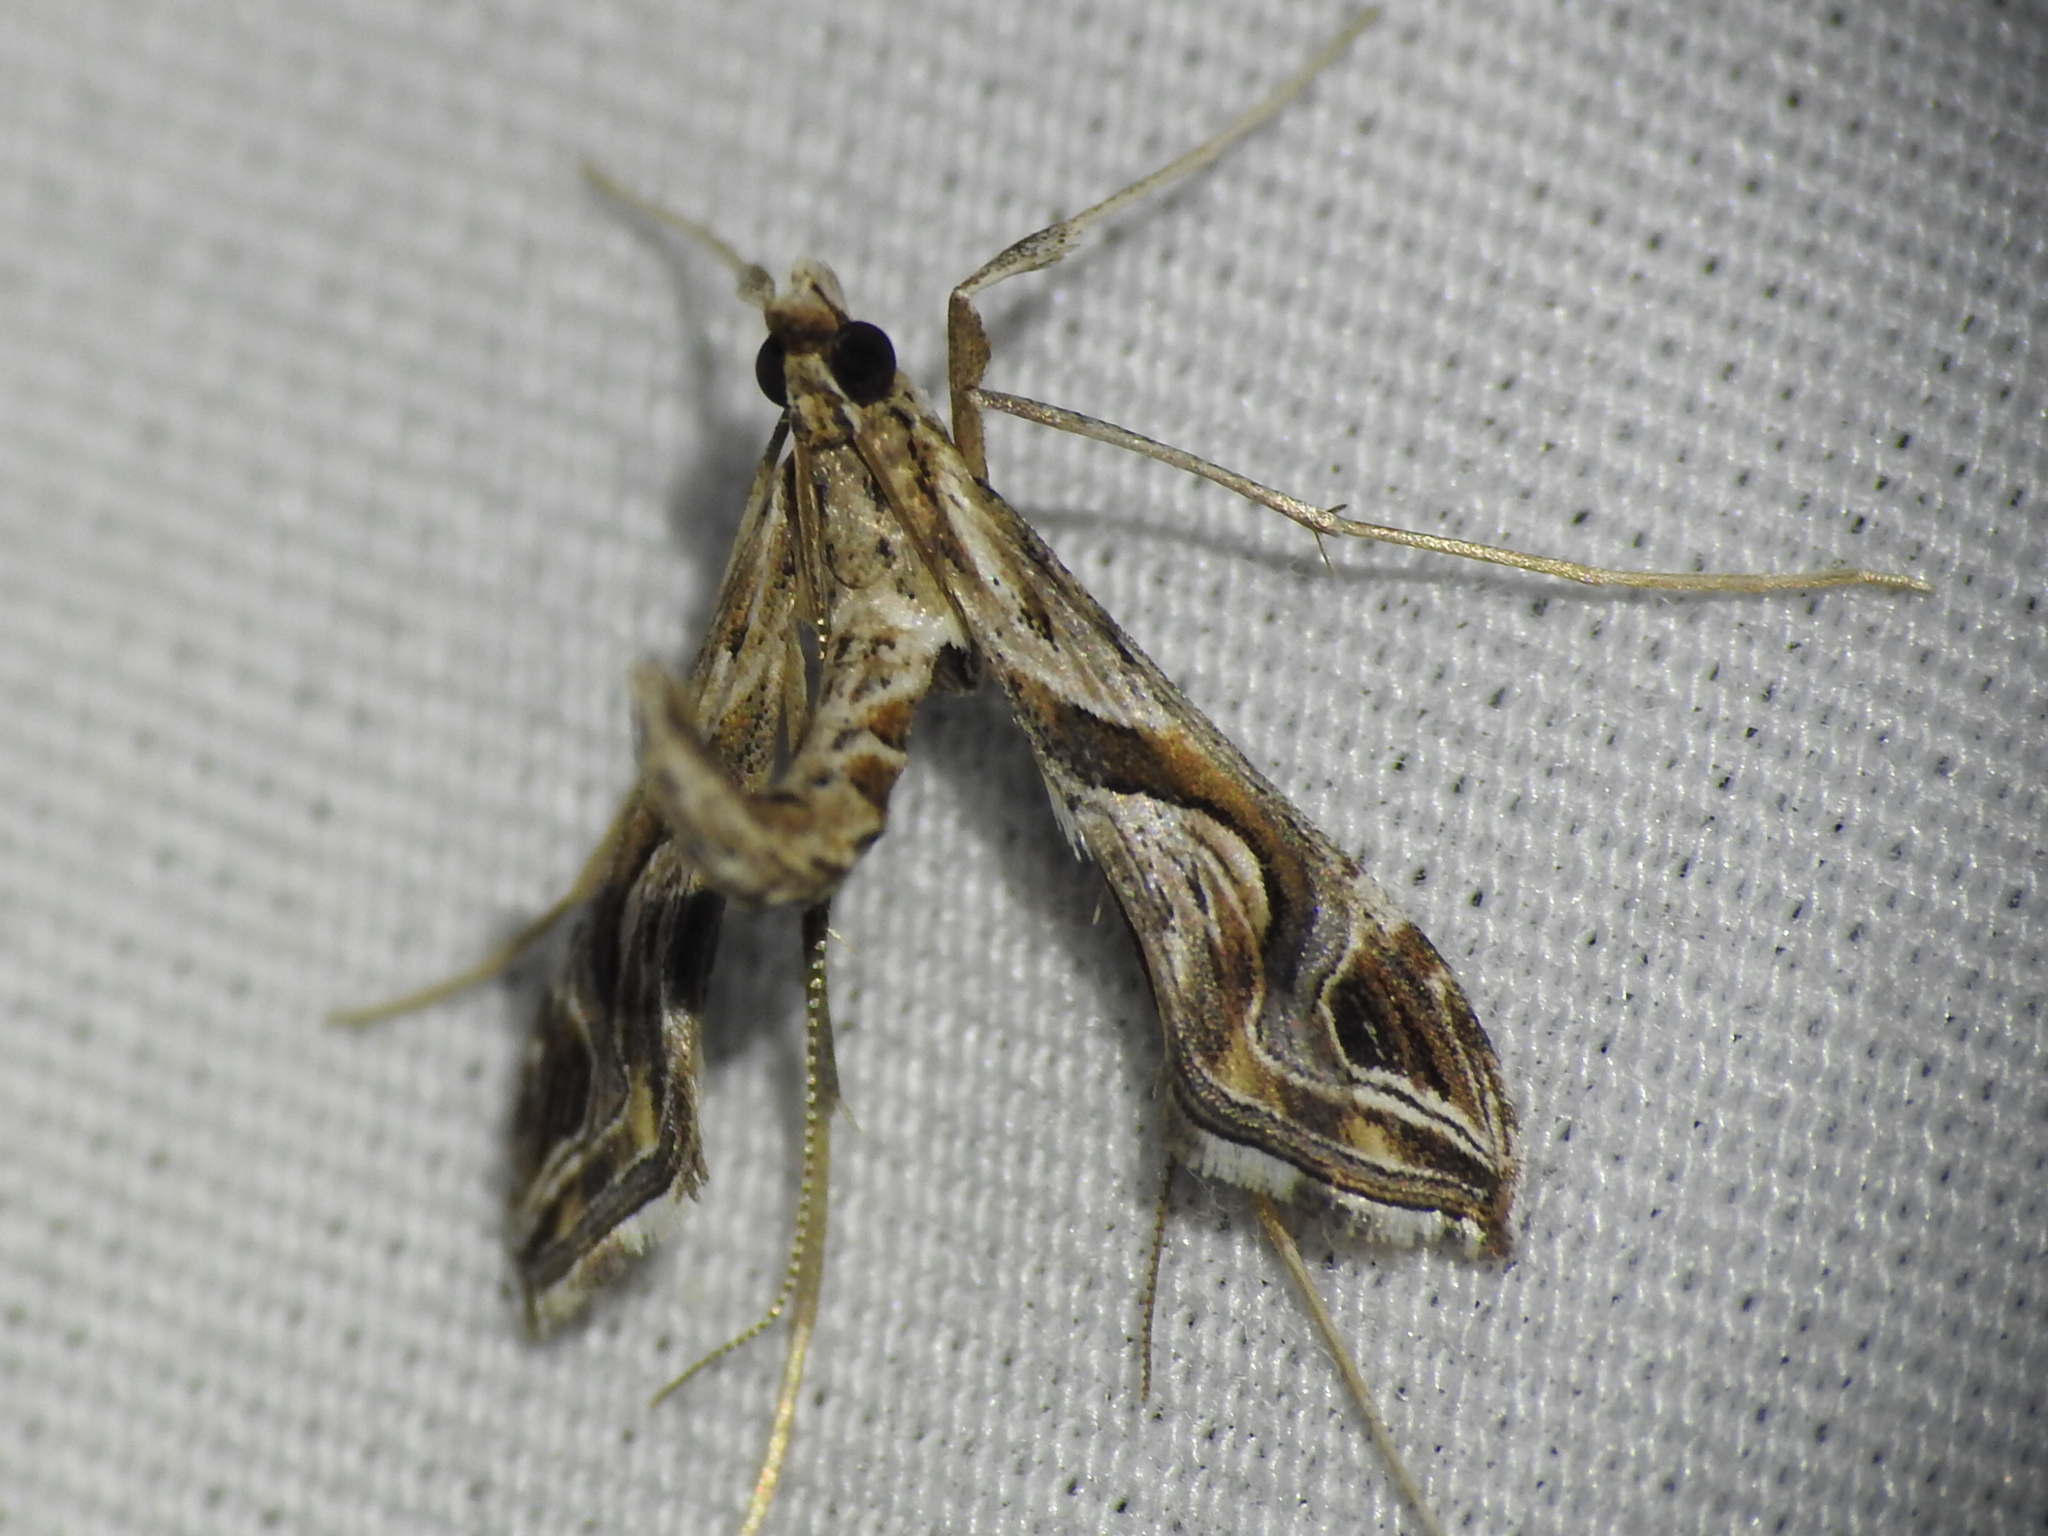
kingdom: Animalia
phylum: Arthropoda
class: Insecta
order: Lepidoptera
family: Crambidae
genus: Lineodes
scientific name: Lineodes integra
